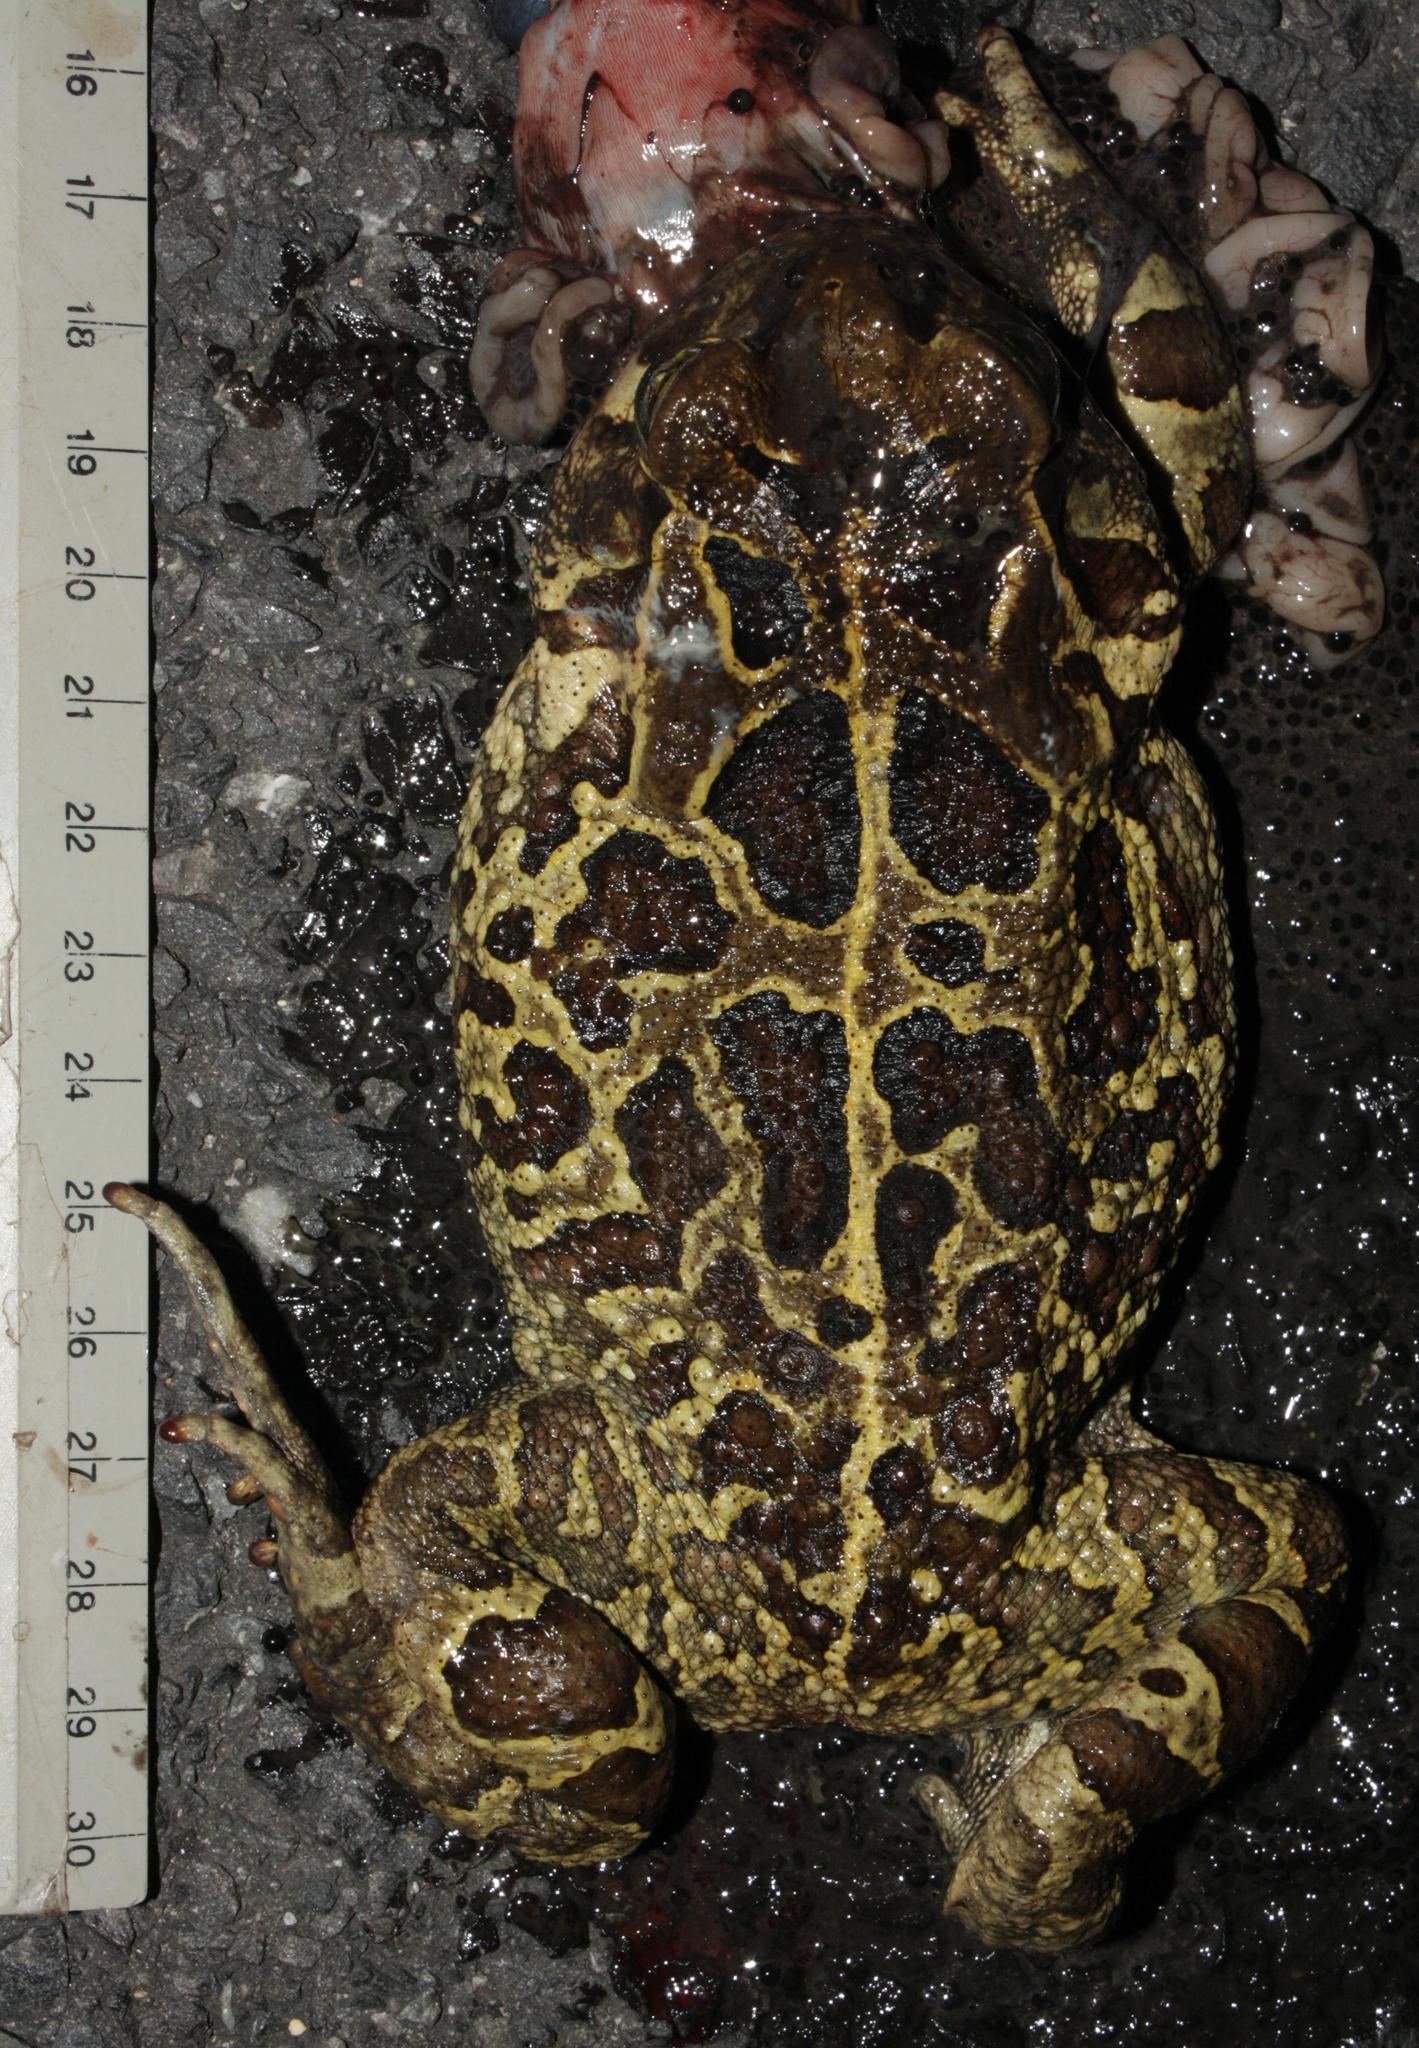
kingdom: Animalia
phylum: Chordata
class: Amphibia
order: Anura
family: Bufonidae
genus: Sclerophrys
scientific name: Sclerophrys pantherina
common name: Panther toad
